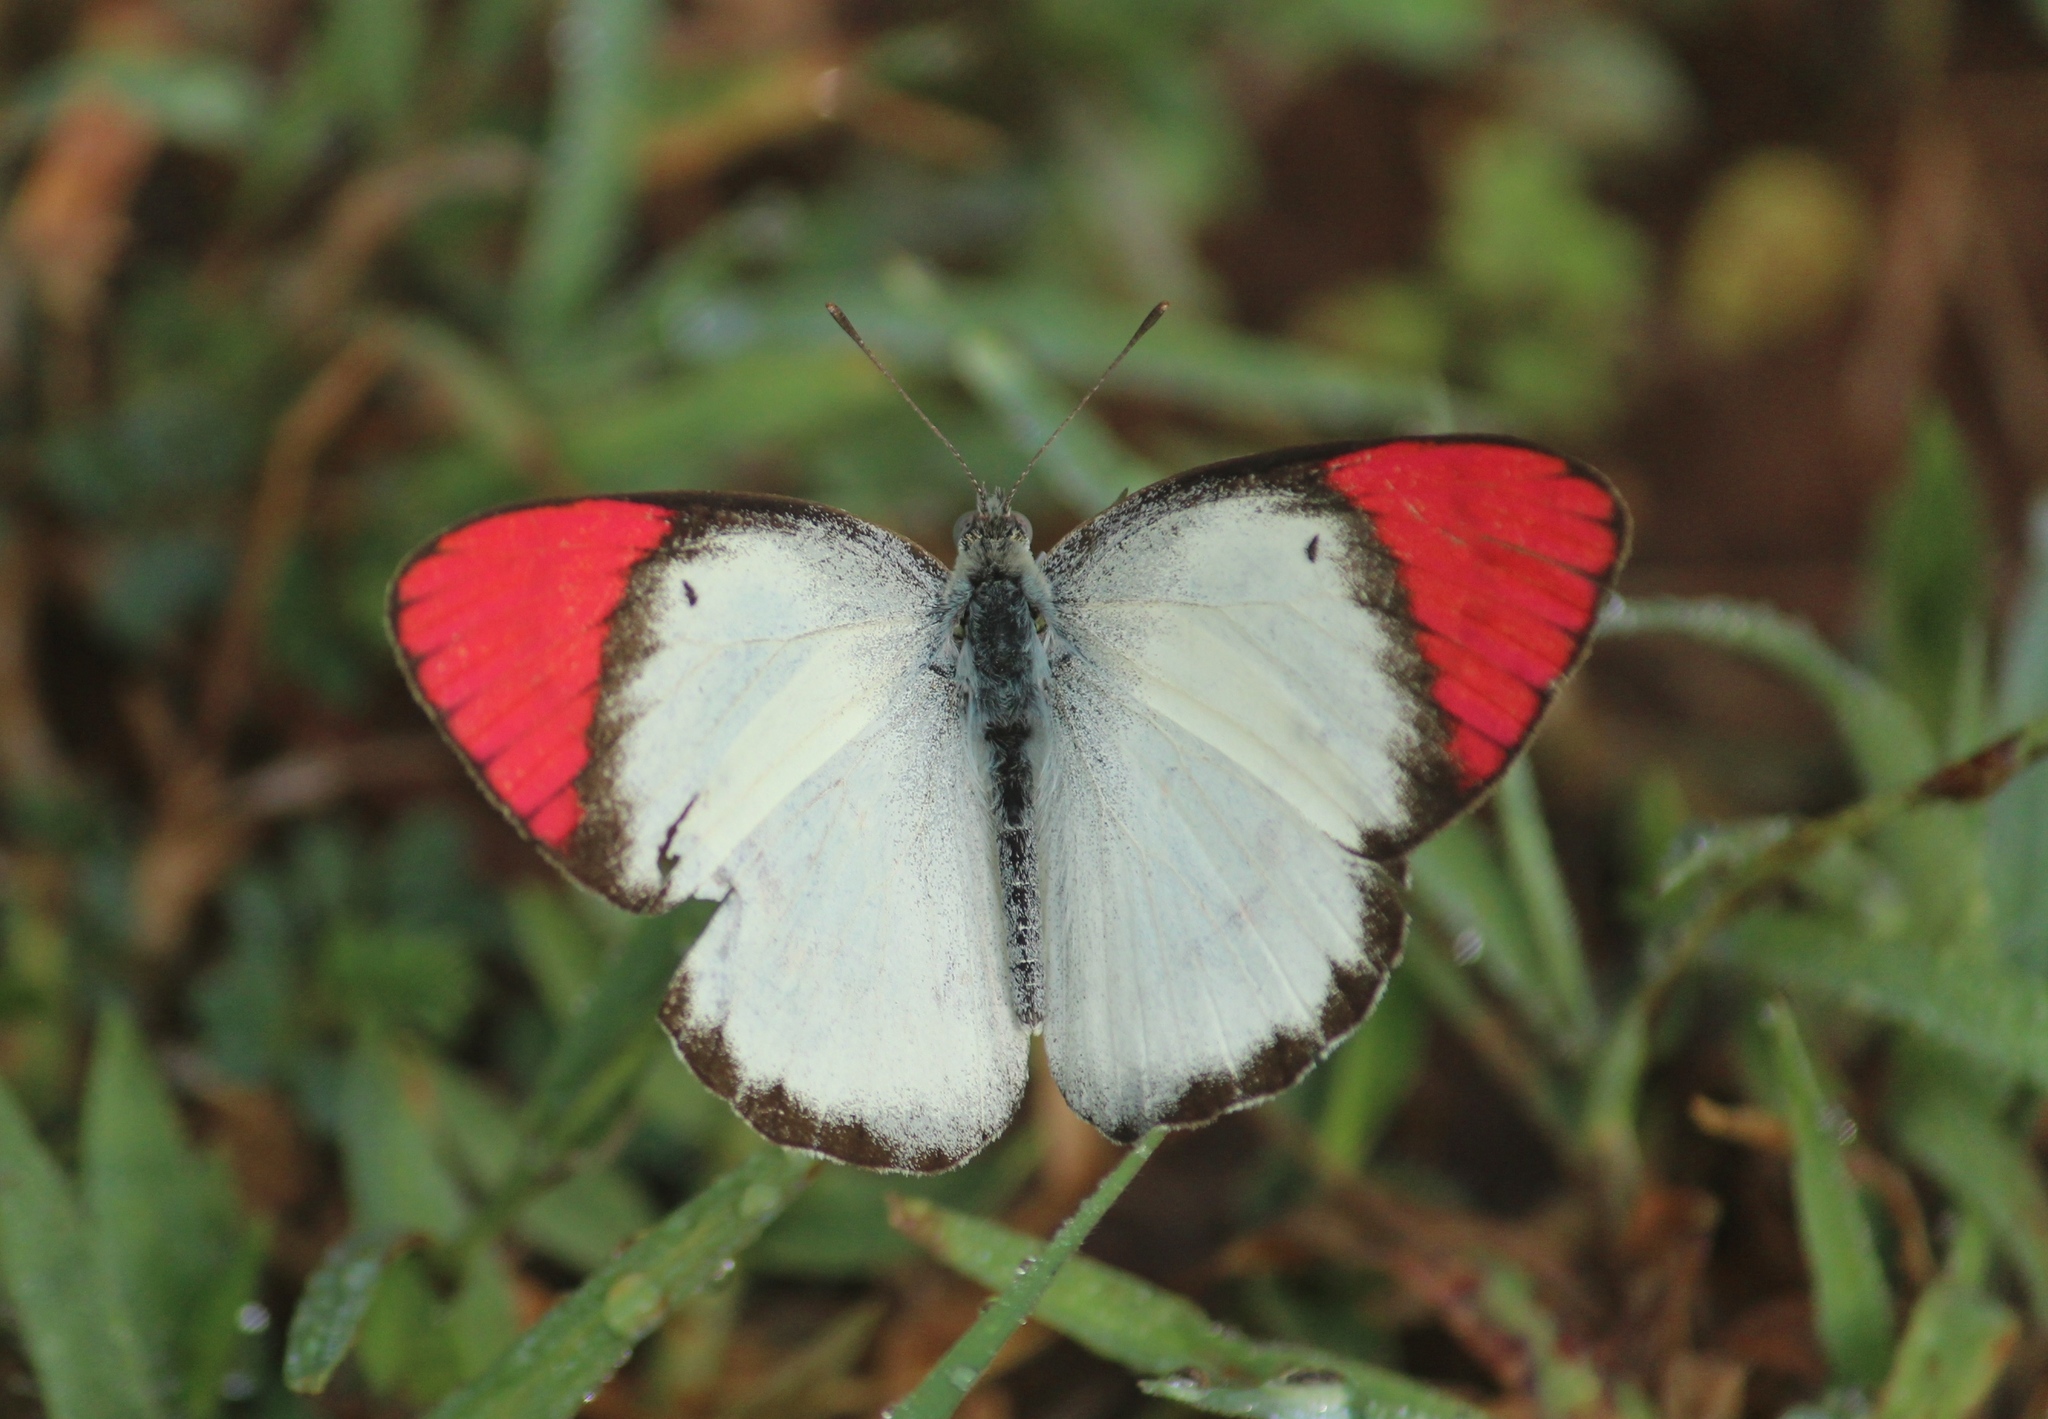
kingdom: Animalia
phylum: Arthropoda
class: Insecta
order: Lepidoptera
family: Pieridae
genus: Colotis
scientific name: Colotis danae
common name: Crimson tip
